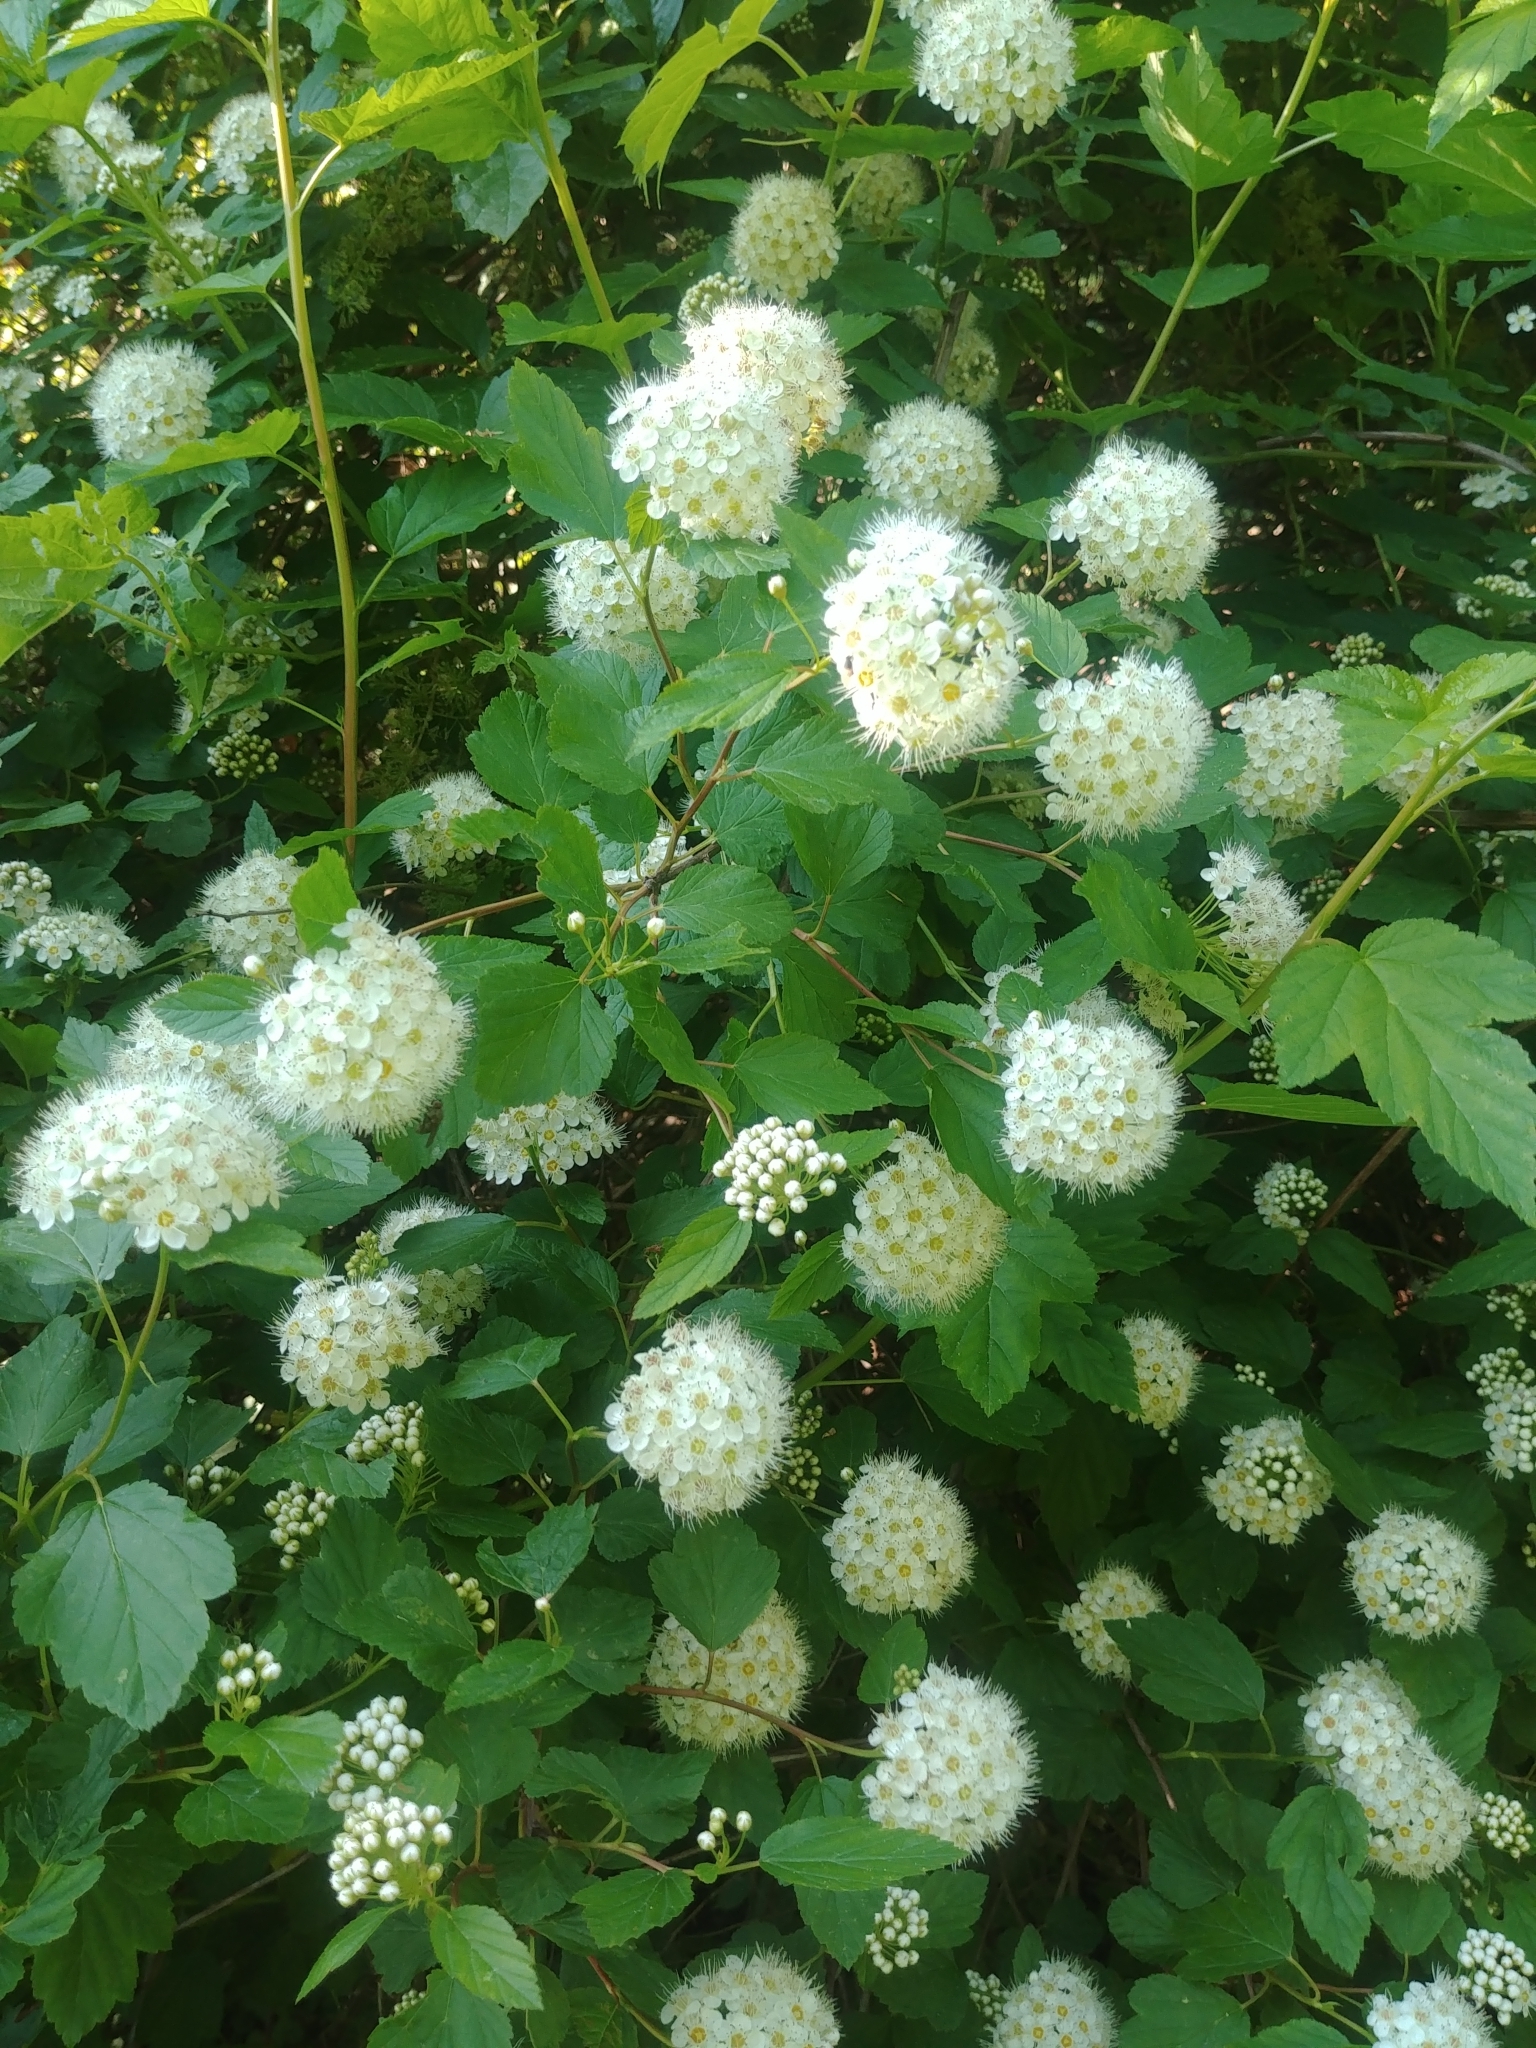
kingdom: Plantae
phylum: Tracheophyta
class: Magnoliopsida
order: Rosales
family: Rosaceae
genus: Physocarpus
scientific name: Physocarpus opulifolius
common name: Ninebark
